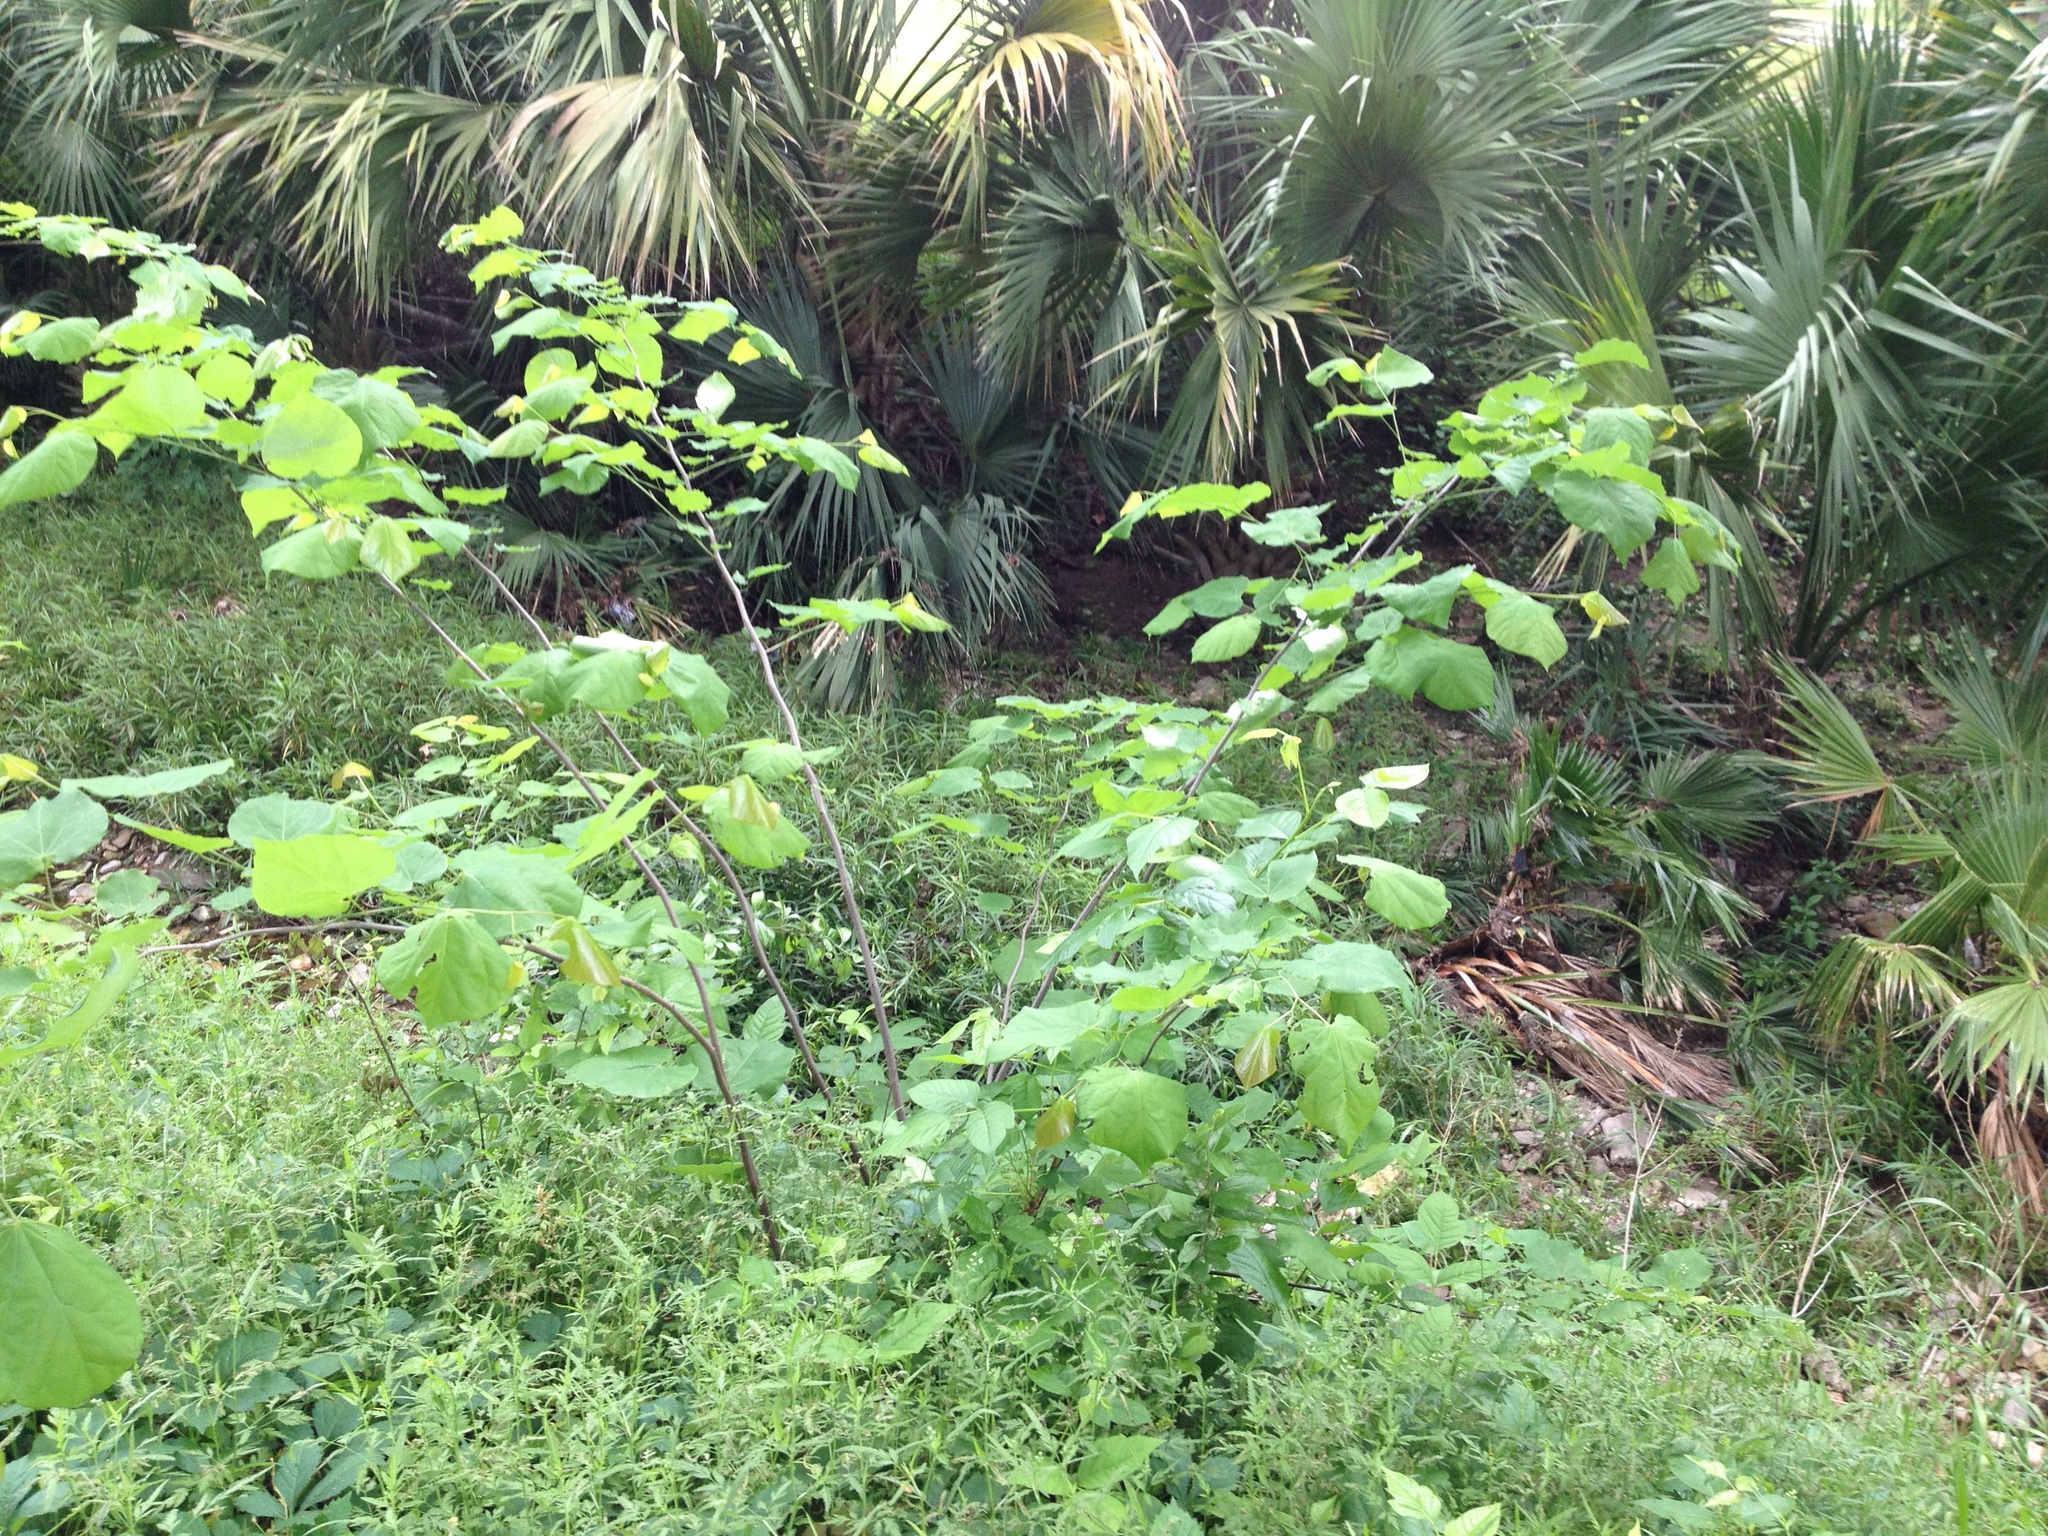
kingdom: Plantae
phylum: Tracheophyta
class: Magnoliopsida
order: Fabales
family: Fabaceae
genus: Cercis
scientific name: Cercis canadensis
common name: Eastern redbud
